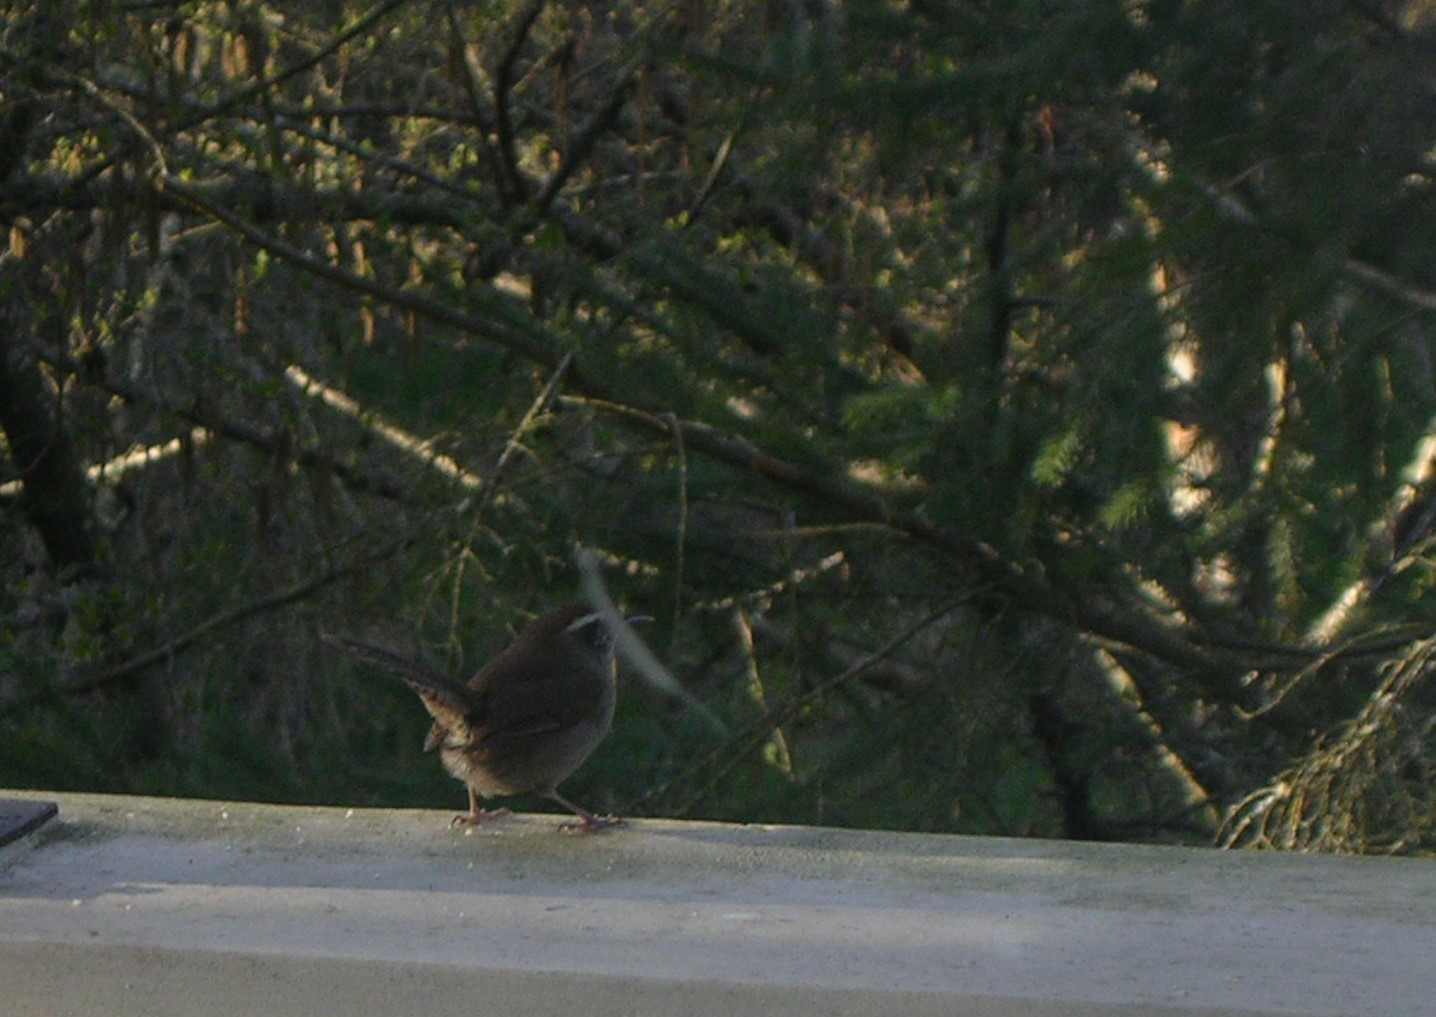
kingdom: Animalia
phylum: Chordata
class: Aves
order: Passeriformes
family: Troglodytidae
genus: Thryomanes
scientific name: Thryomanes bewickii
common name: Bewick's wren
